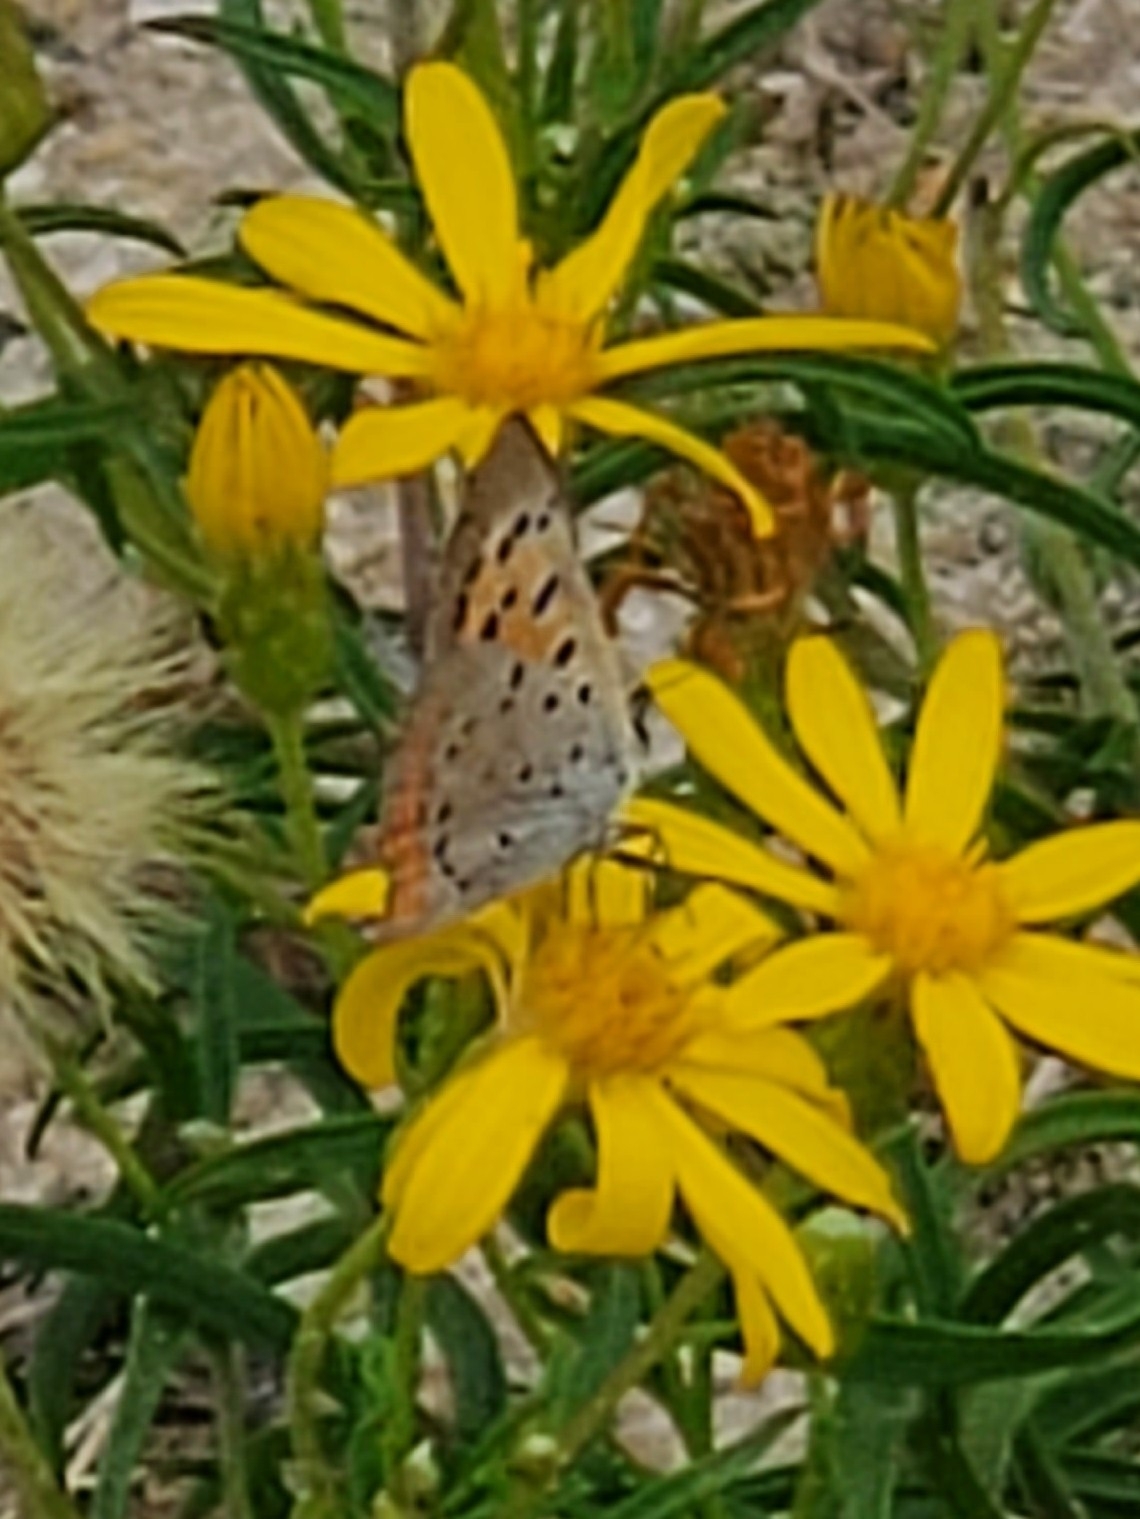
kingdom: Animalia
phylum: Arthropoda
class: Insecta
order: Lepidoptera
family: Lycaenidae
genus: Lycaena
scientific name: Lycaena hypophlaeas
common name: American copper
